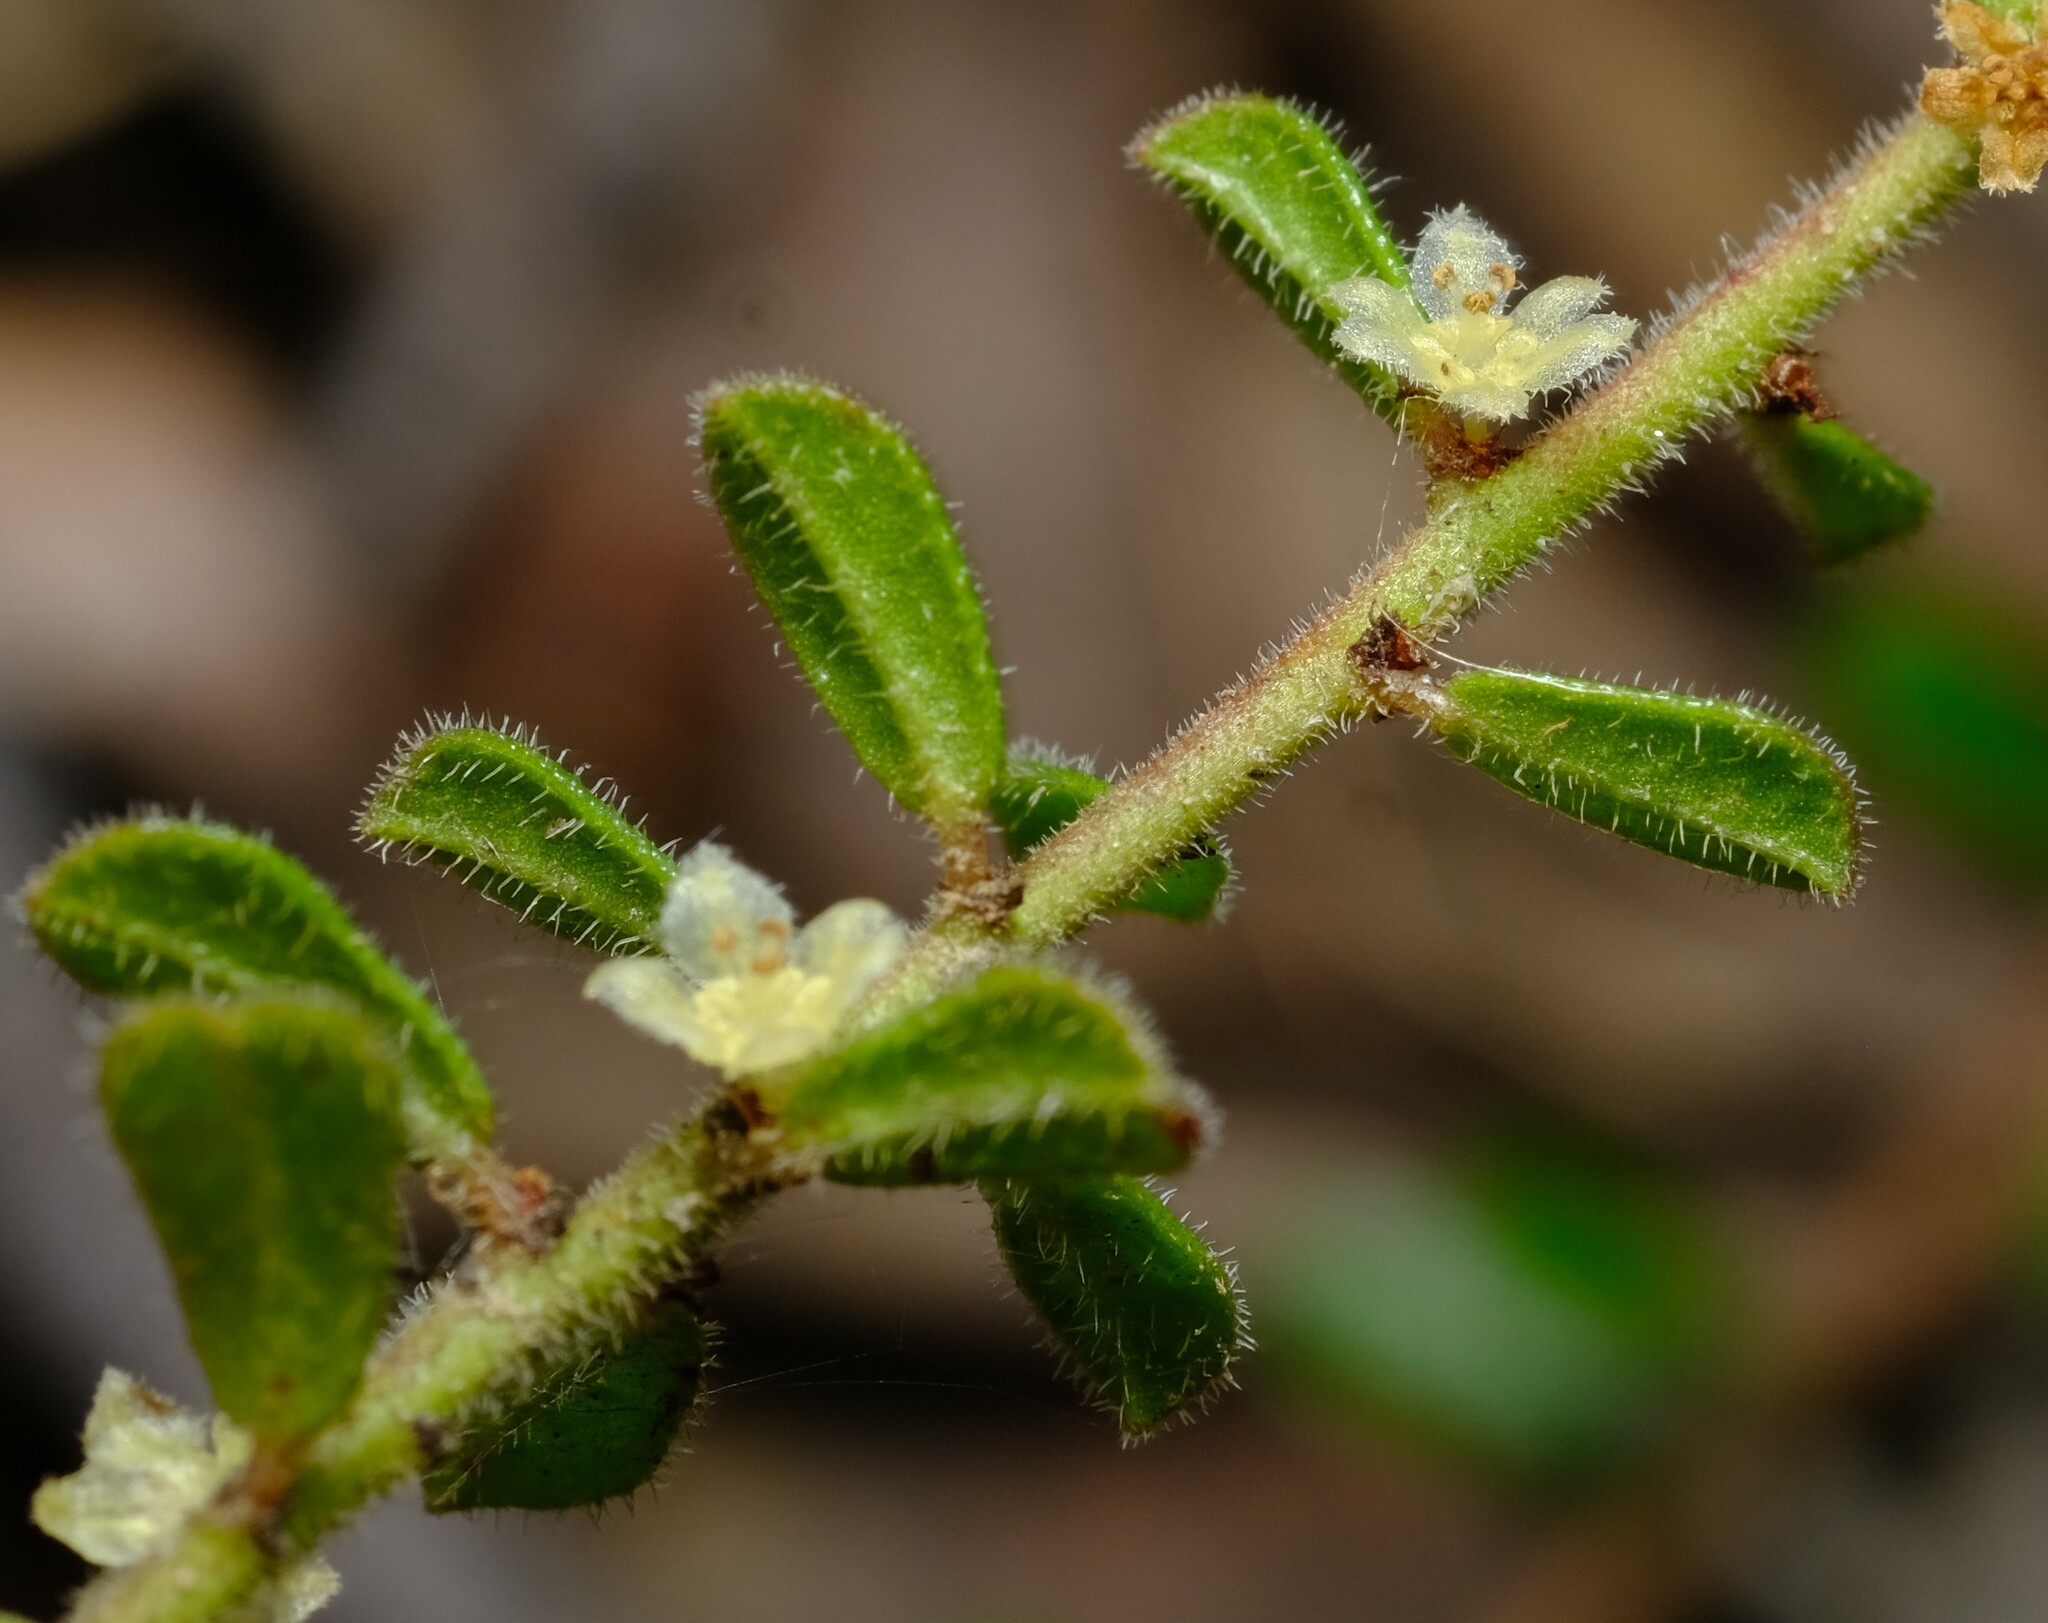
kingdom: Plantae
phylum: Tracheophyta
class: Magnoliopsida
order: Malpighiales
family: Phyllanthaceae
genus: Phyllanthus
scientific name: Phyllanthus hirtellus
